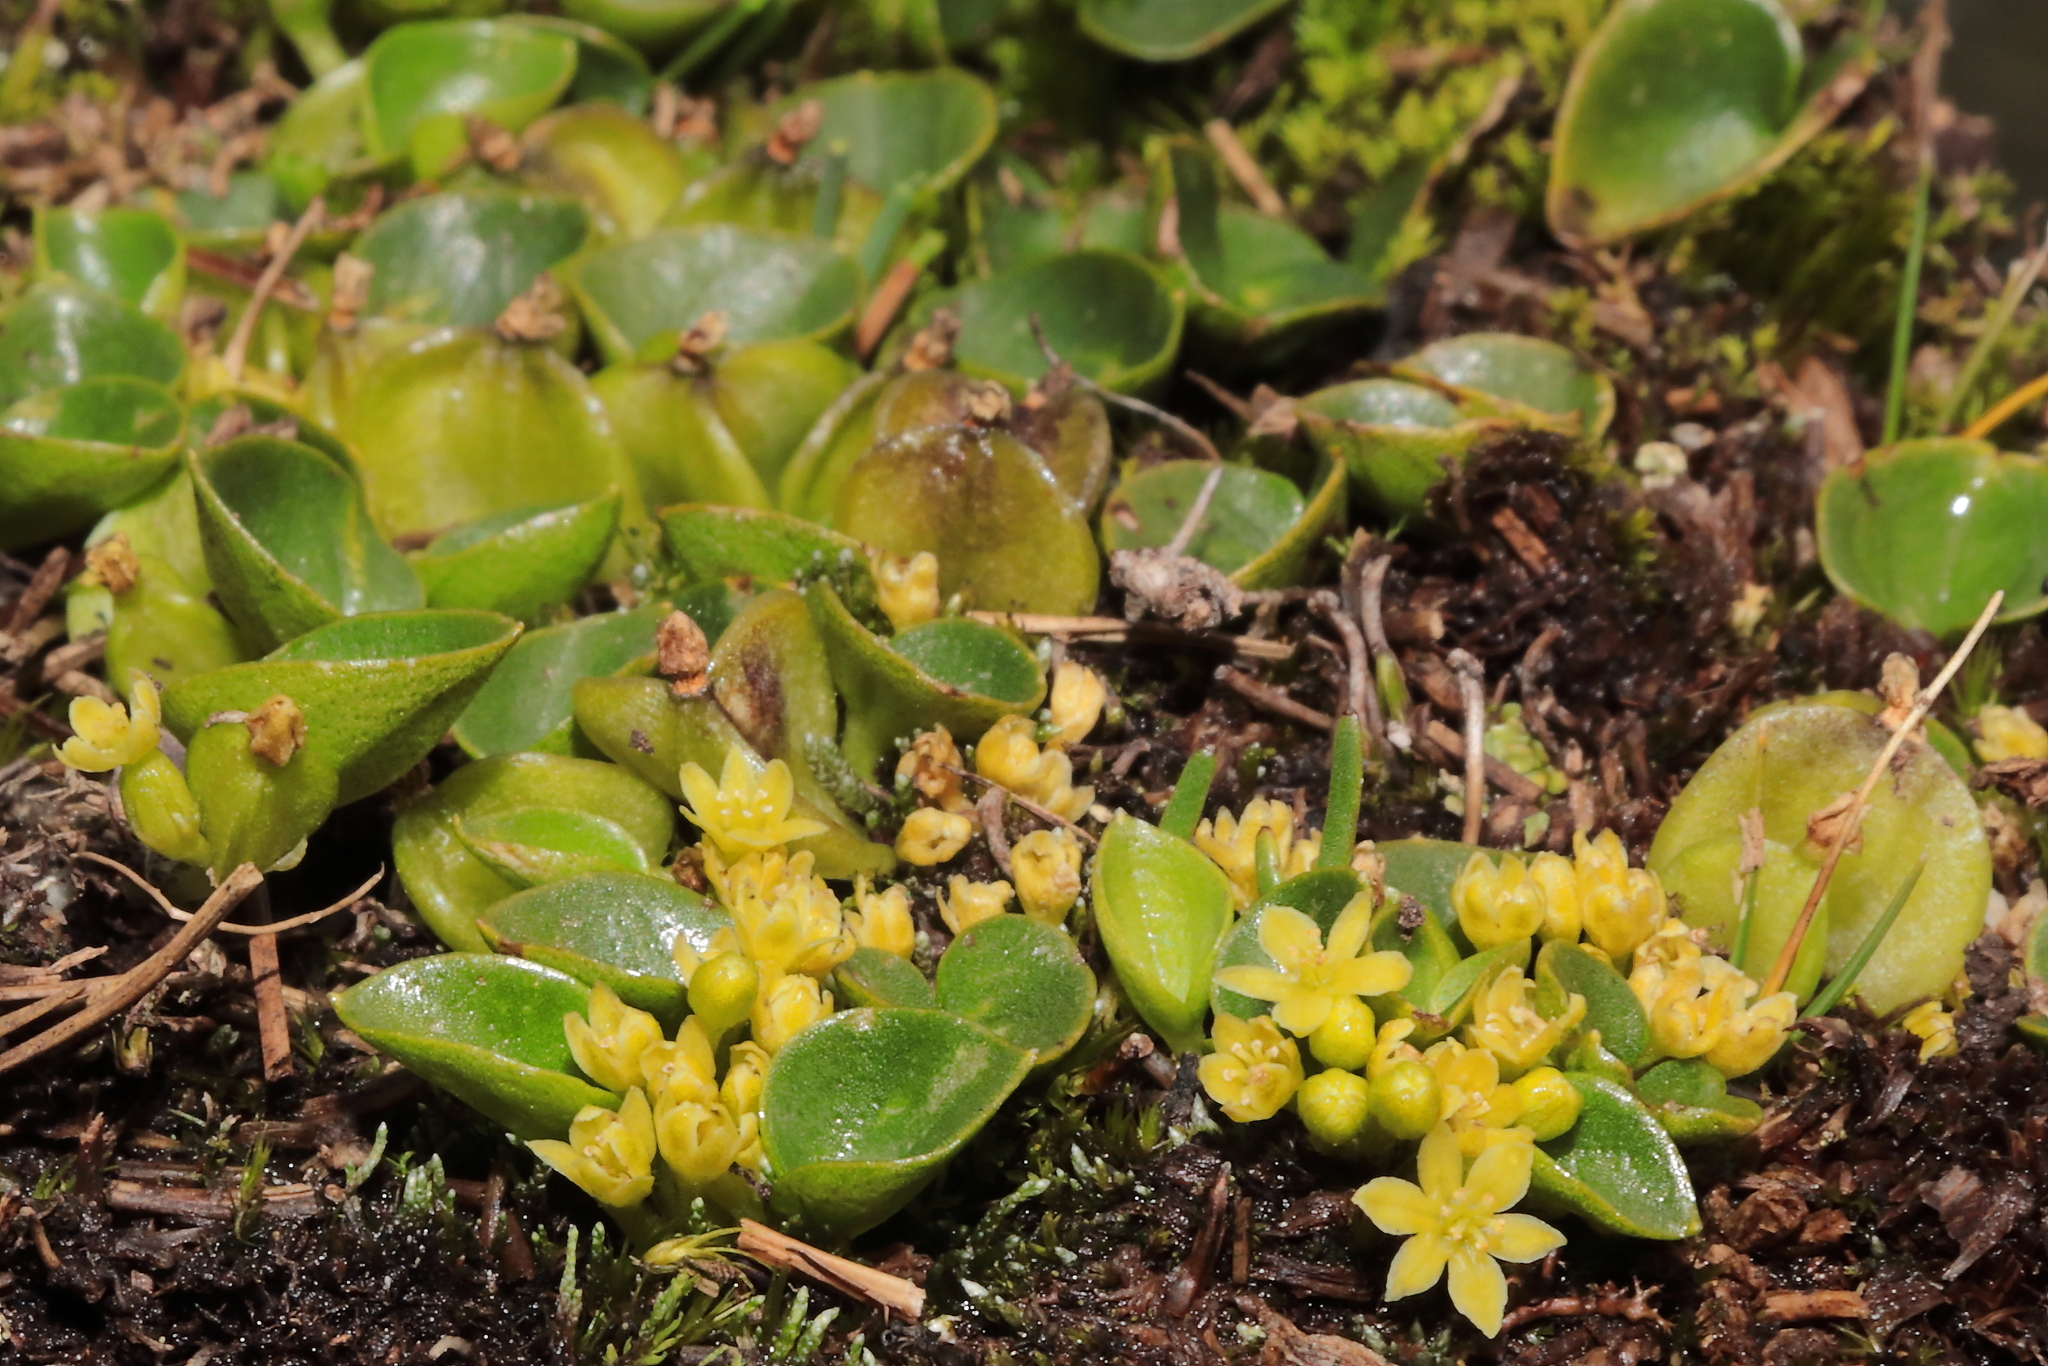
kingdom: Plantae
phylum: Tracheophyta
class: Liliopsida
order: Dioscoreales
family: Dioscoreaceae
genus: Dioscorea
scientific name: Dioscorea ancachsensis
